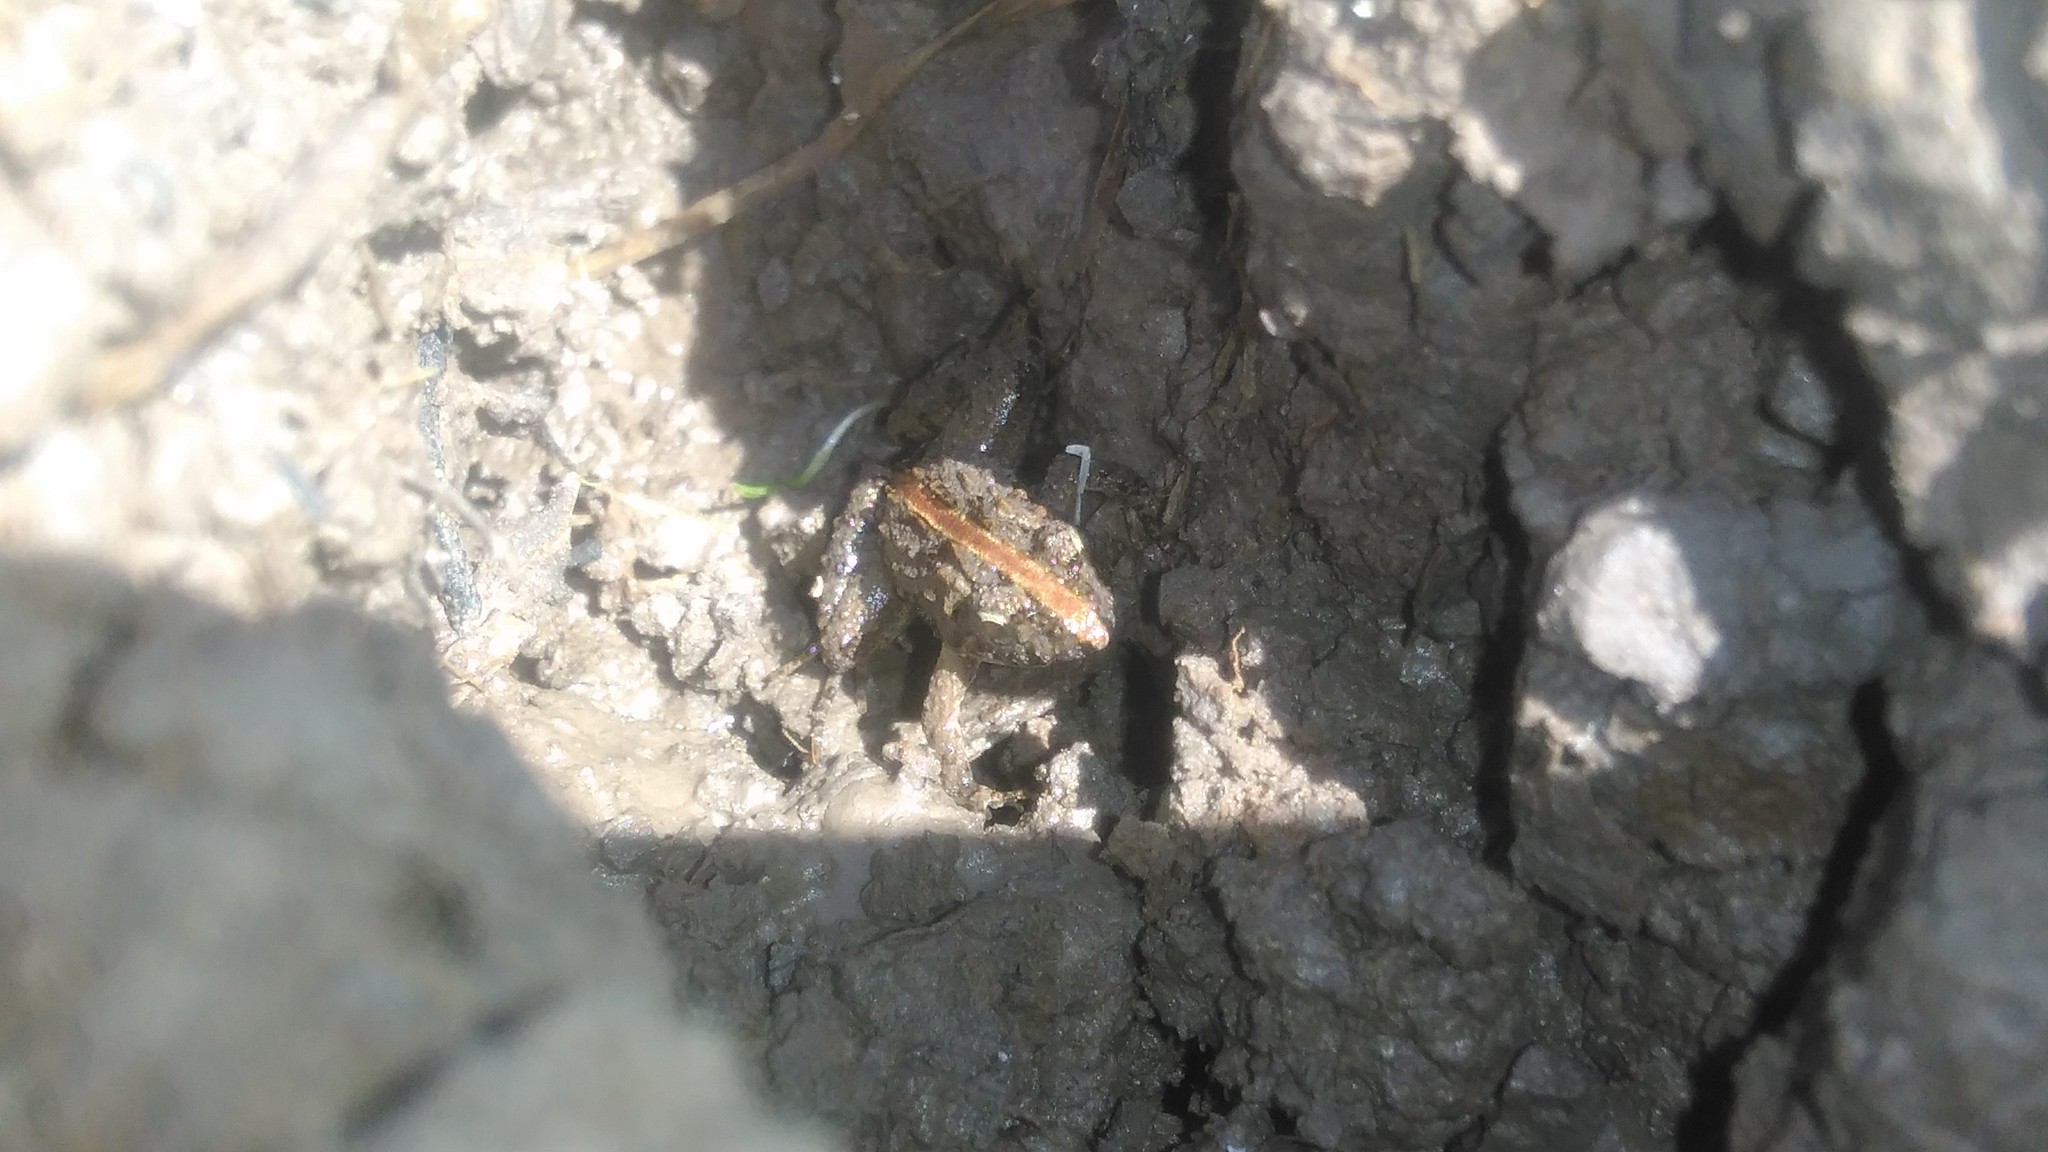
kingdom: Animalia
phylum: Chordata
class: Amphibia
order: Anura
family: Leptodactylidae
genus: Pseudopaludicola
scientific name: Pseudopaludicola falcipes
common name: Hensel’s swamp frog
